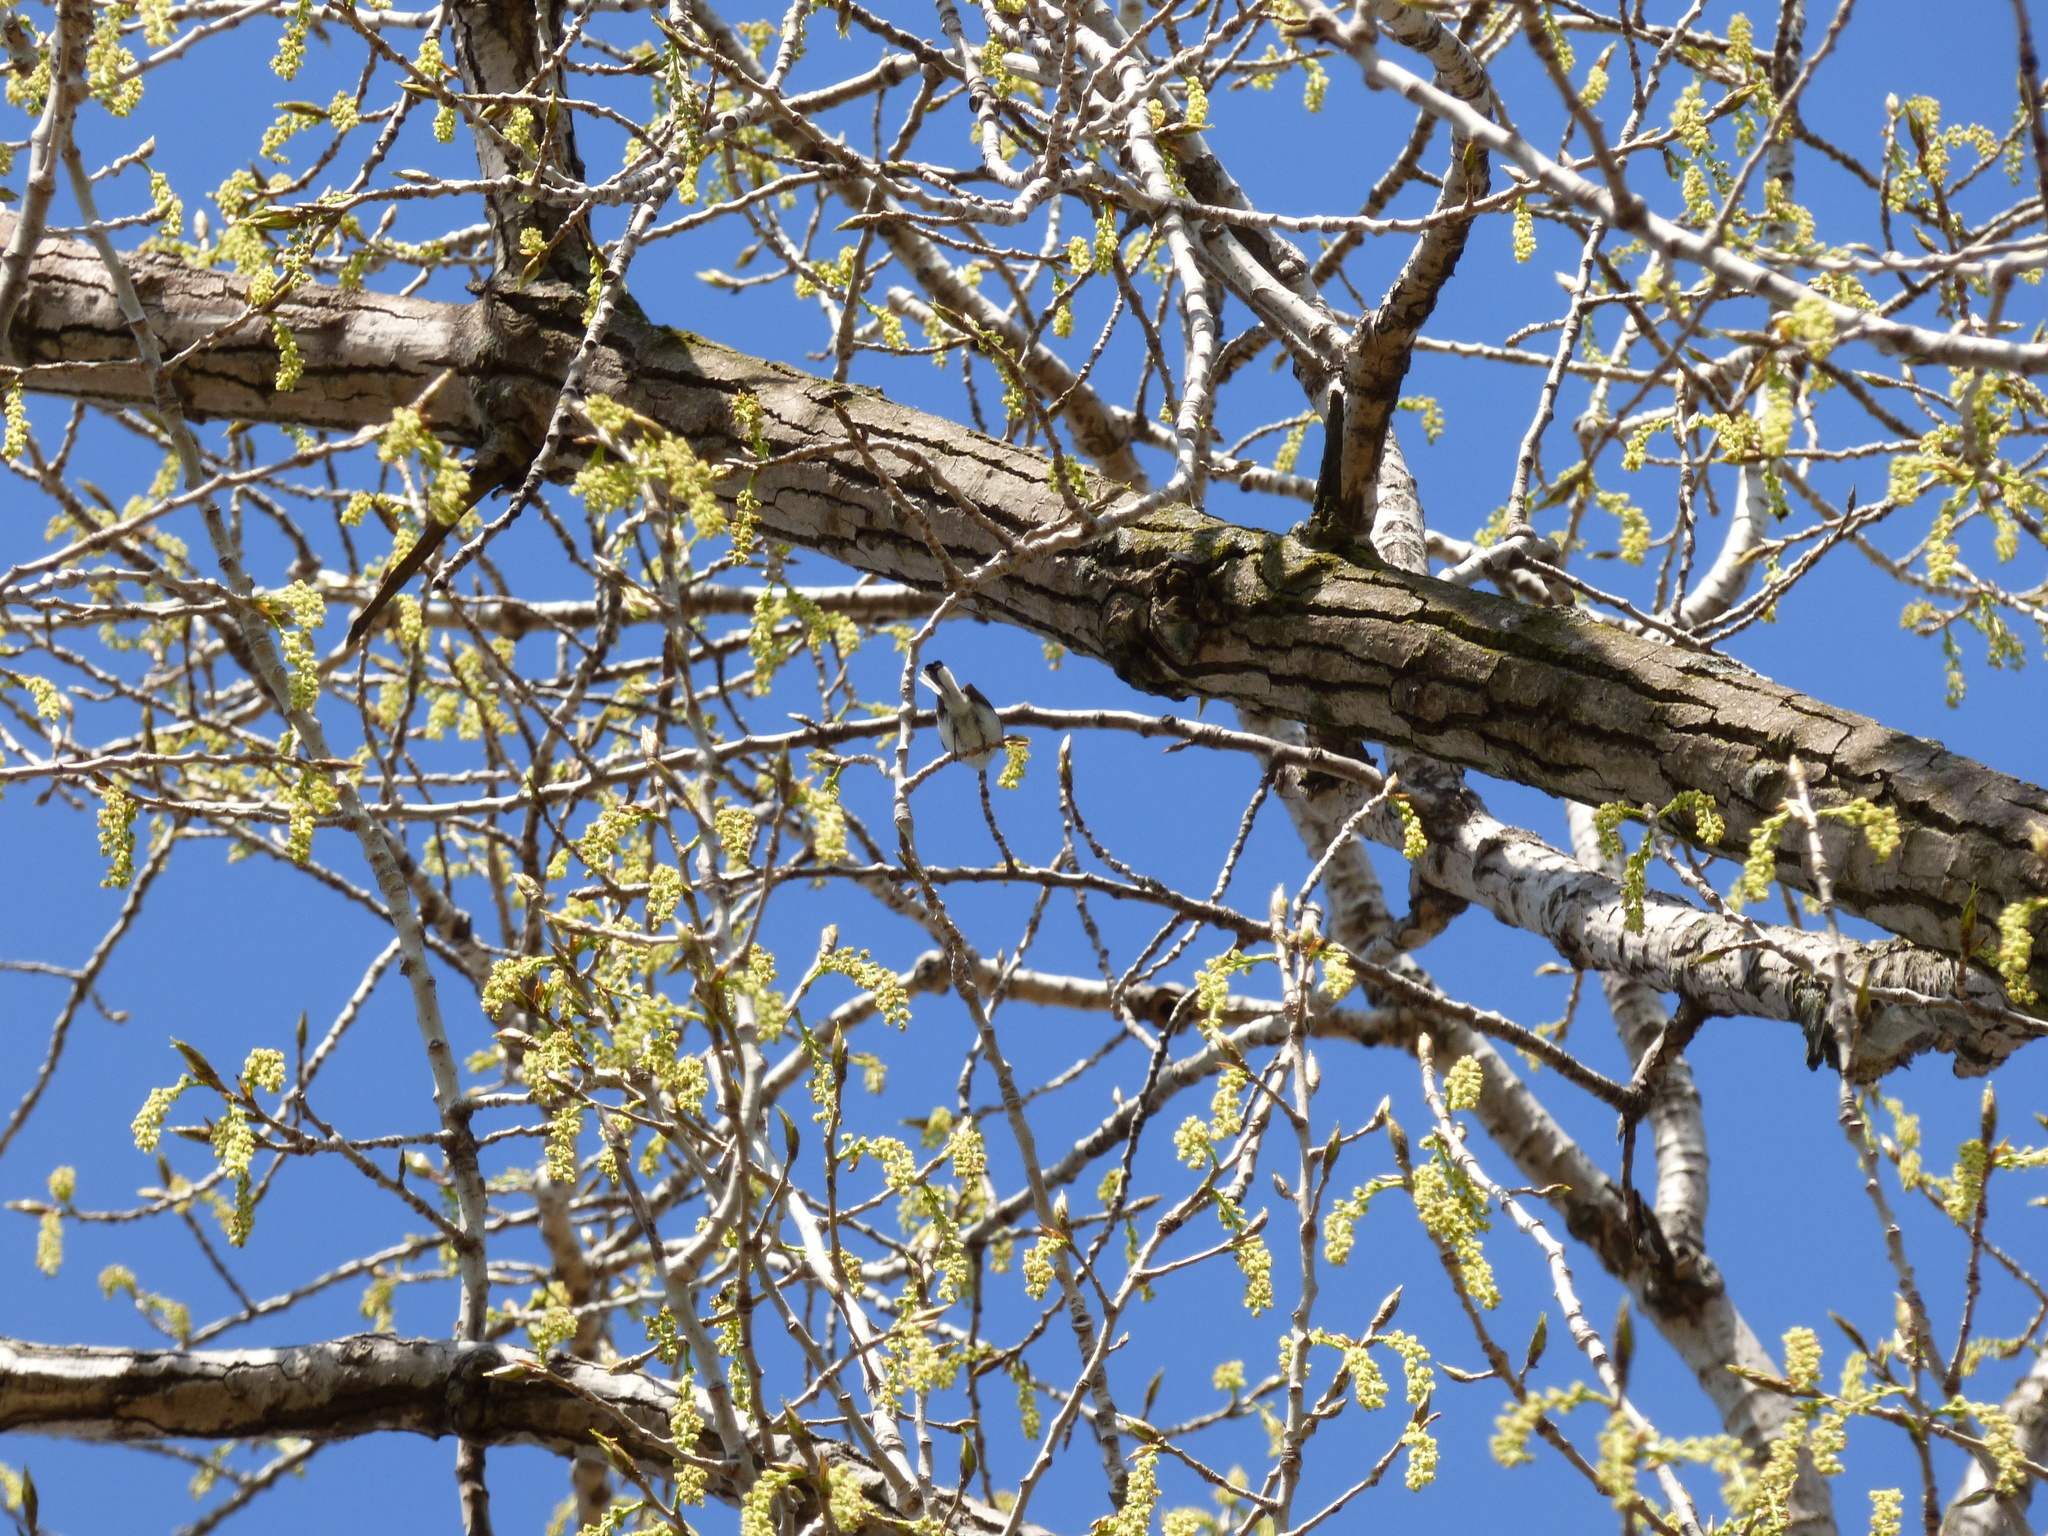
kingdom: Animalia
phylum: Chordata
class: Aves
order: Passeriformes
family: Polioptilidae
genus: Polioptila
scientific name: Polioptila caerulea
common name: Blue-gray gnatcatcher
